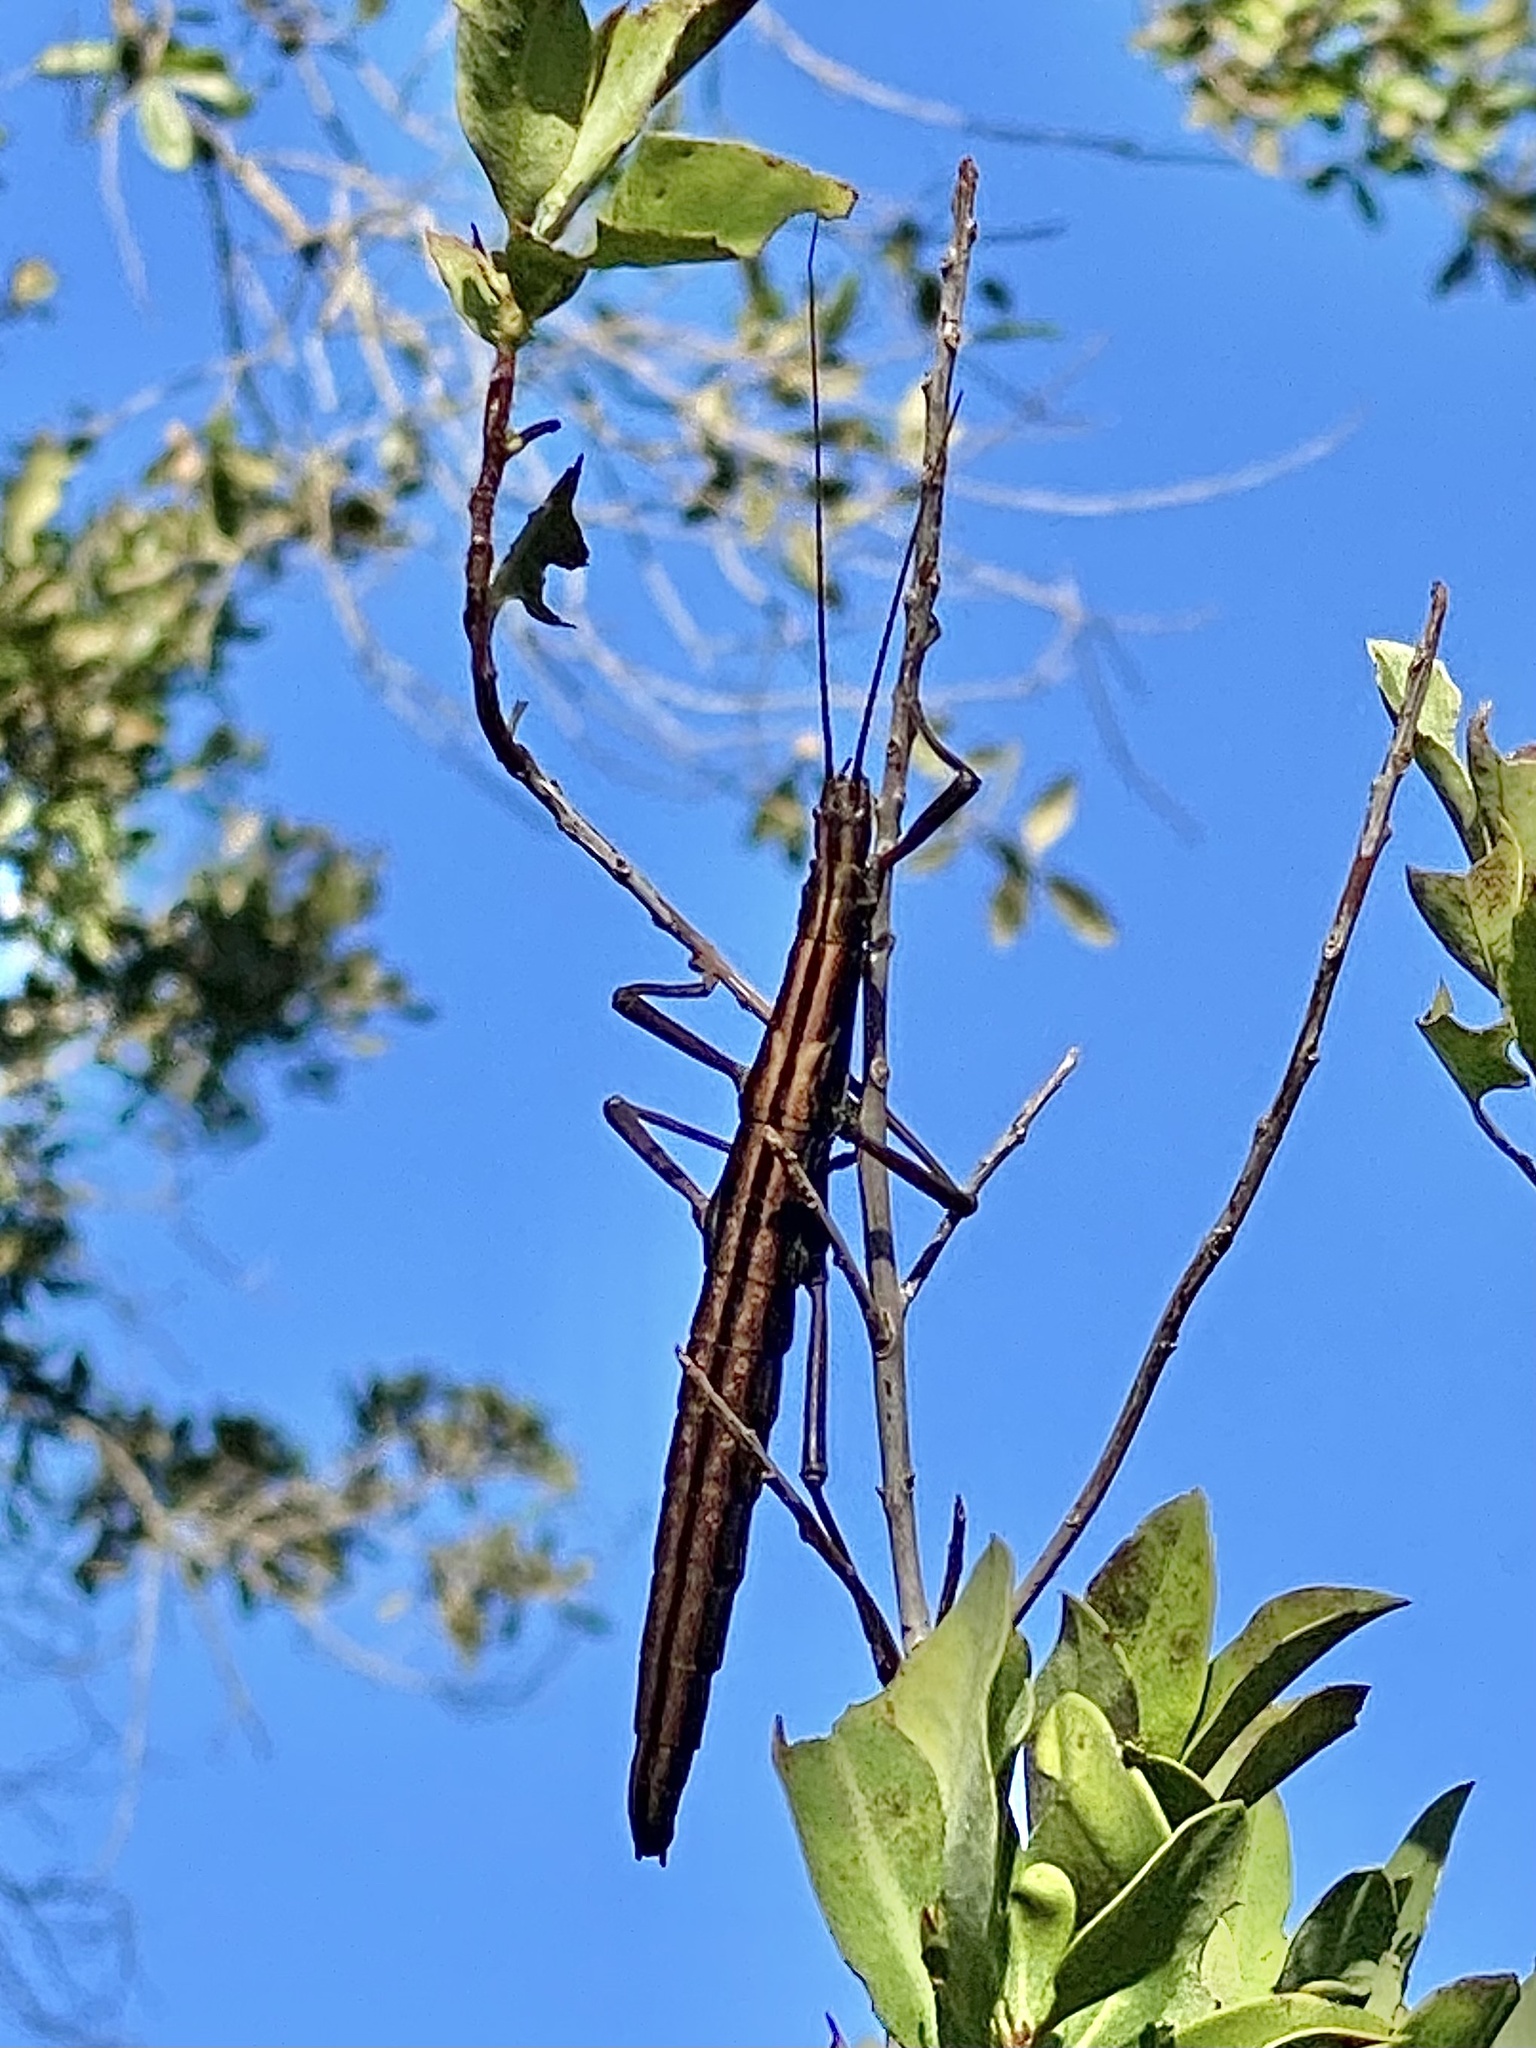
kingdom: Animalia
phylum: Arthropoda
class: Insecta
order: Phasmida
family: Pseudophasmatidae
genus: Anisomorpha
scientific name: Anisomorpha buprestoides
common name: Florida stick insect
